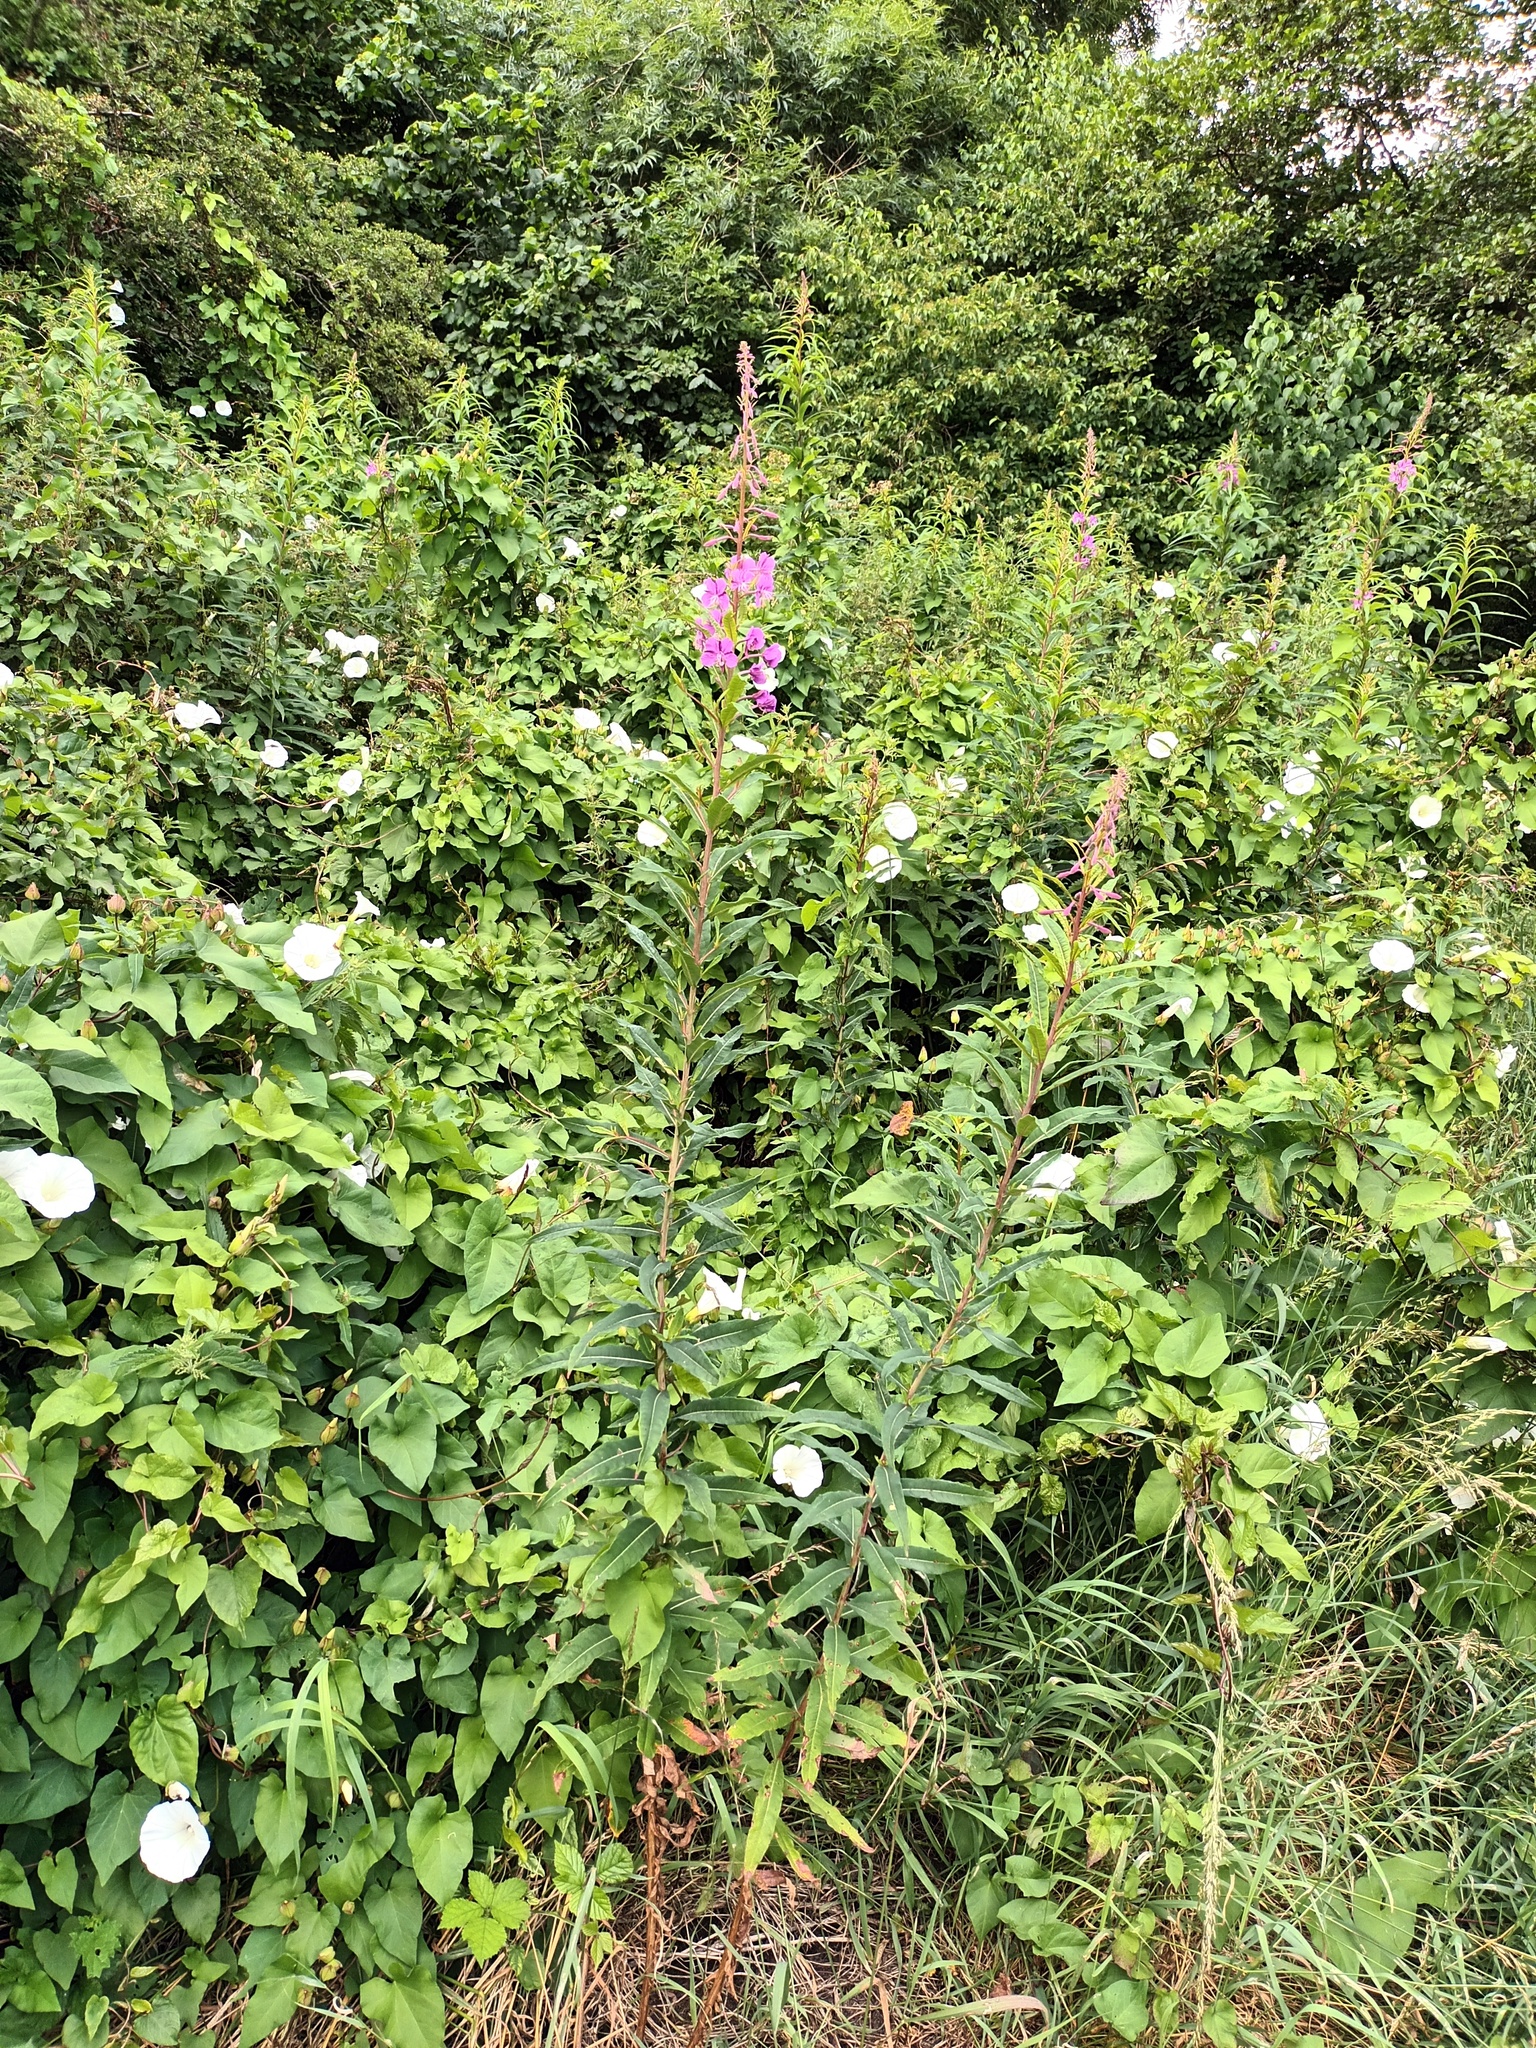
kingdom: Plantae
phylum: Tracheophyta
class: Magnoliopsida
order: Myrtales
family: Onagraceae
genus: Chamaenerion
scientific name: Chamaenerion angustifolium
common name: Fireweed
